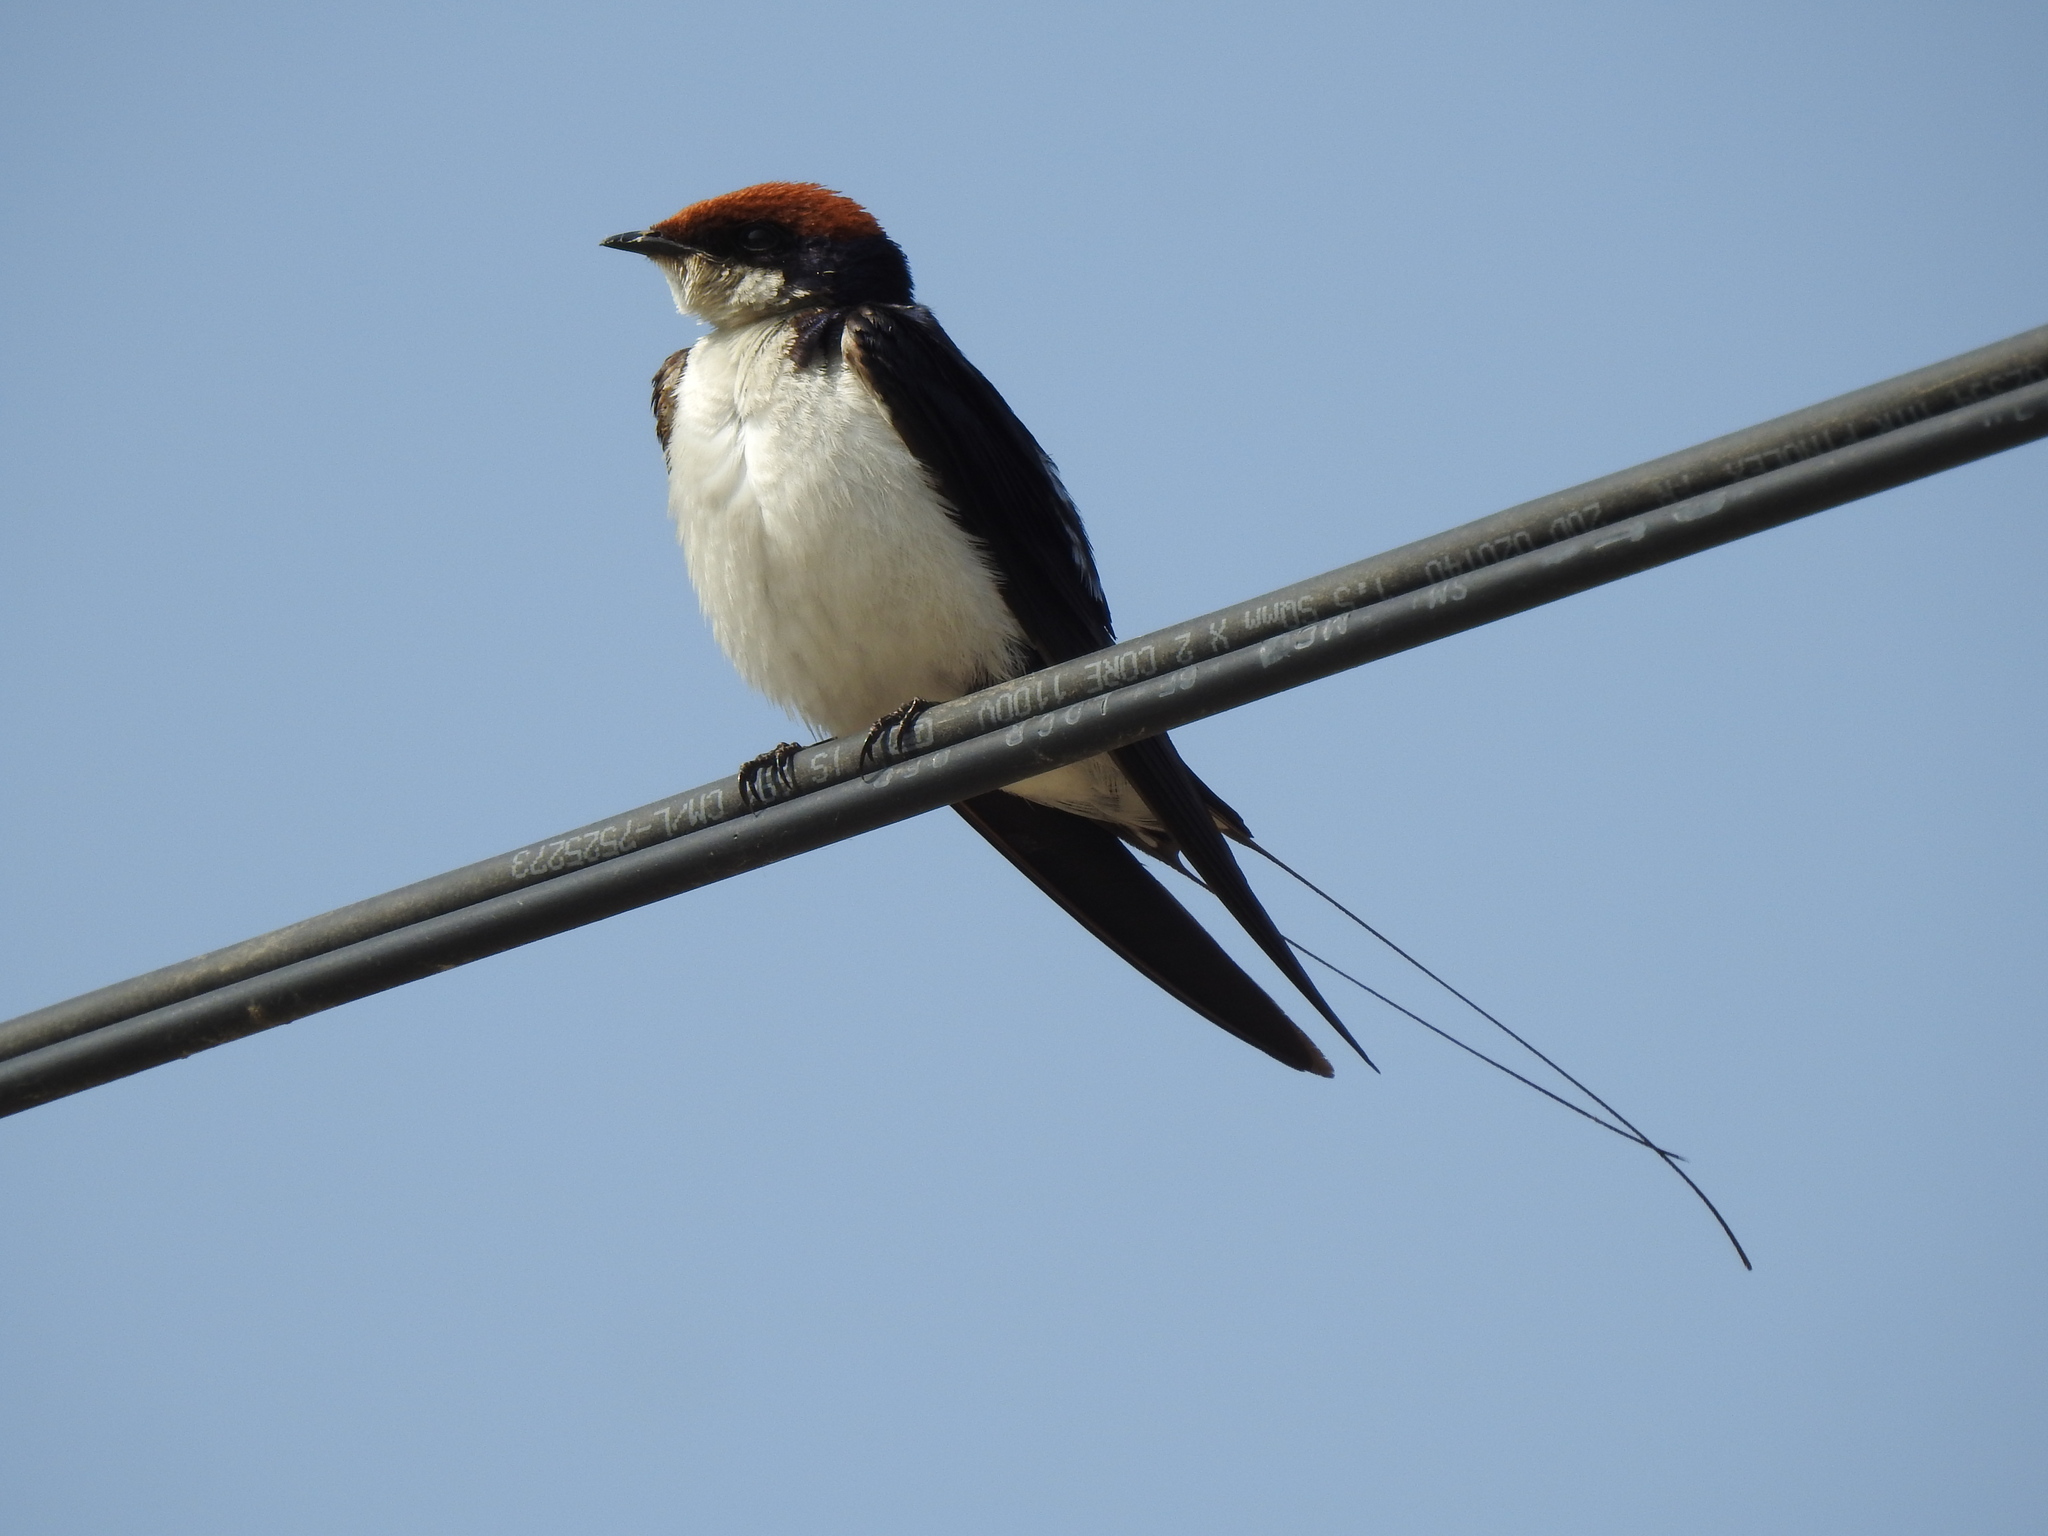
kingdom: Animalia
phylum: Chordata
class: Aves
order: Passeriformes
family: Hirundinidae
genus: Hirundo
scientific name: Hirundo smithii
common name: Wire-tailed swallow
